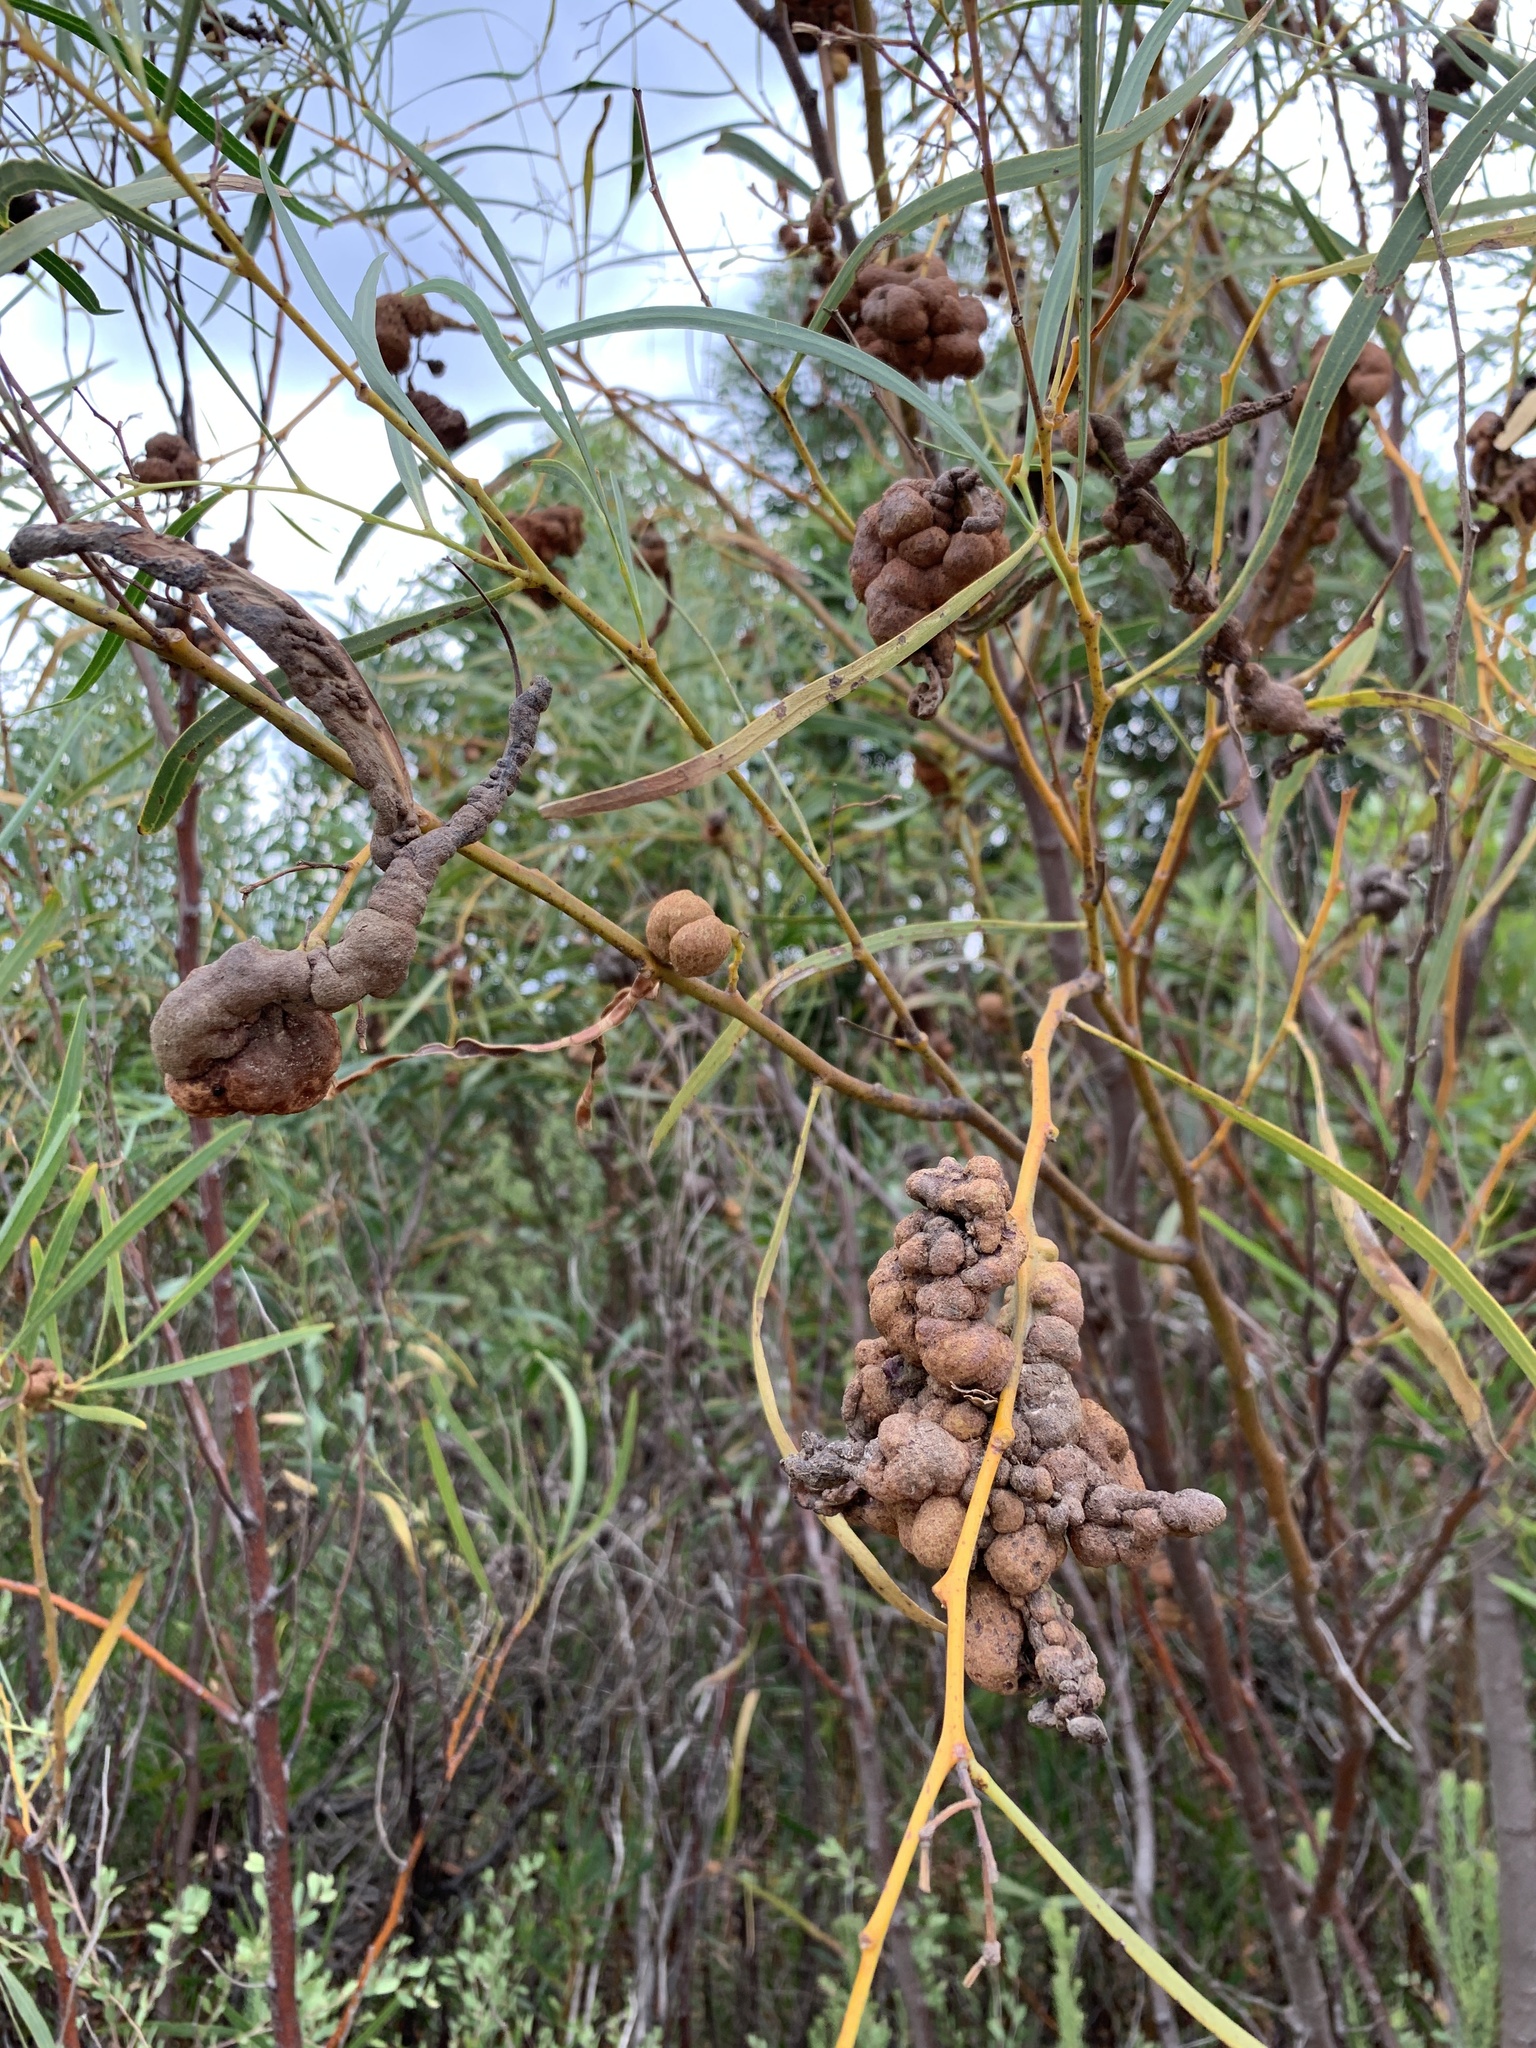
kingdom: Fungi
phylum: Basidiomycota
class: Pucciniomycetes
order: Pucciniales
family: Uromycladiaceae
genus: Uromycladium
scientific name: Uromycladium morrisii
